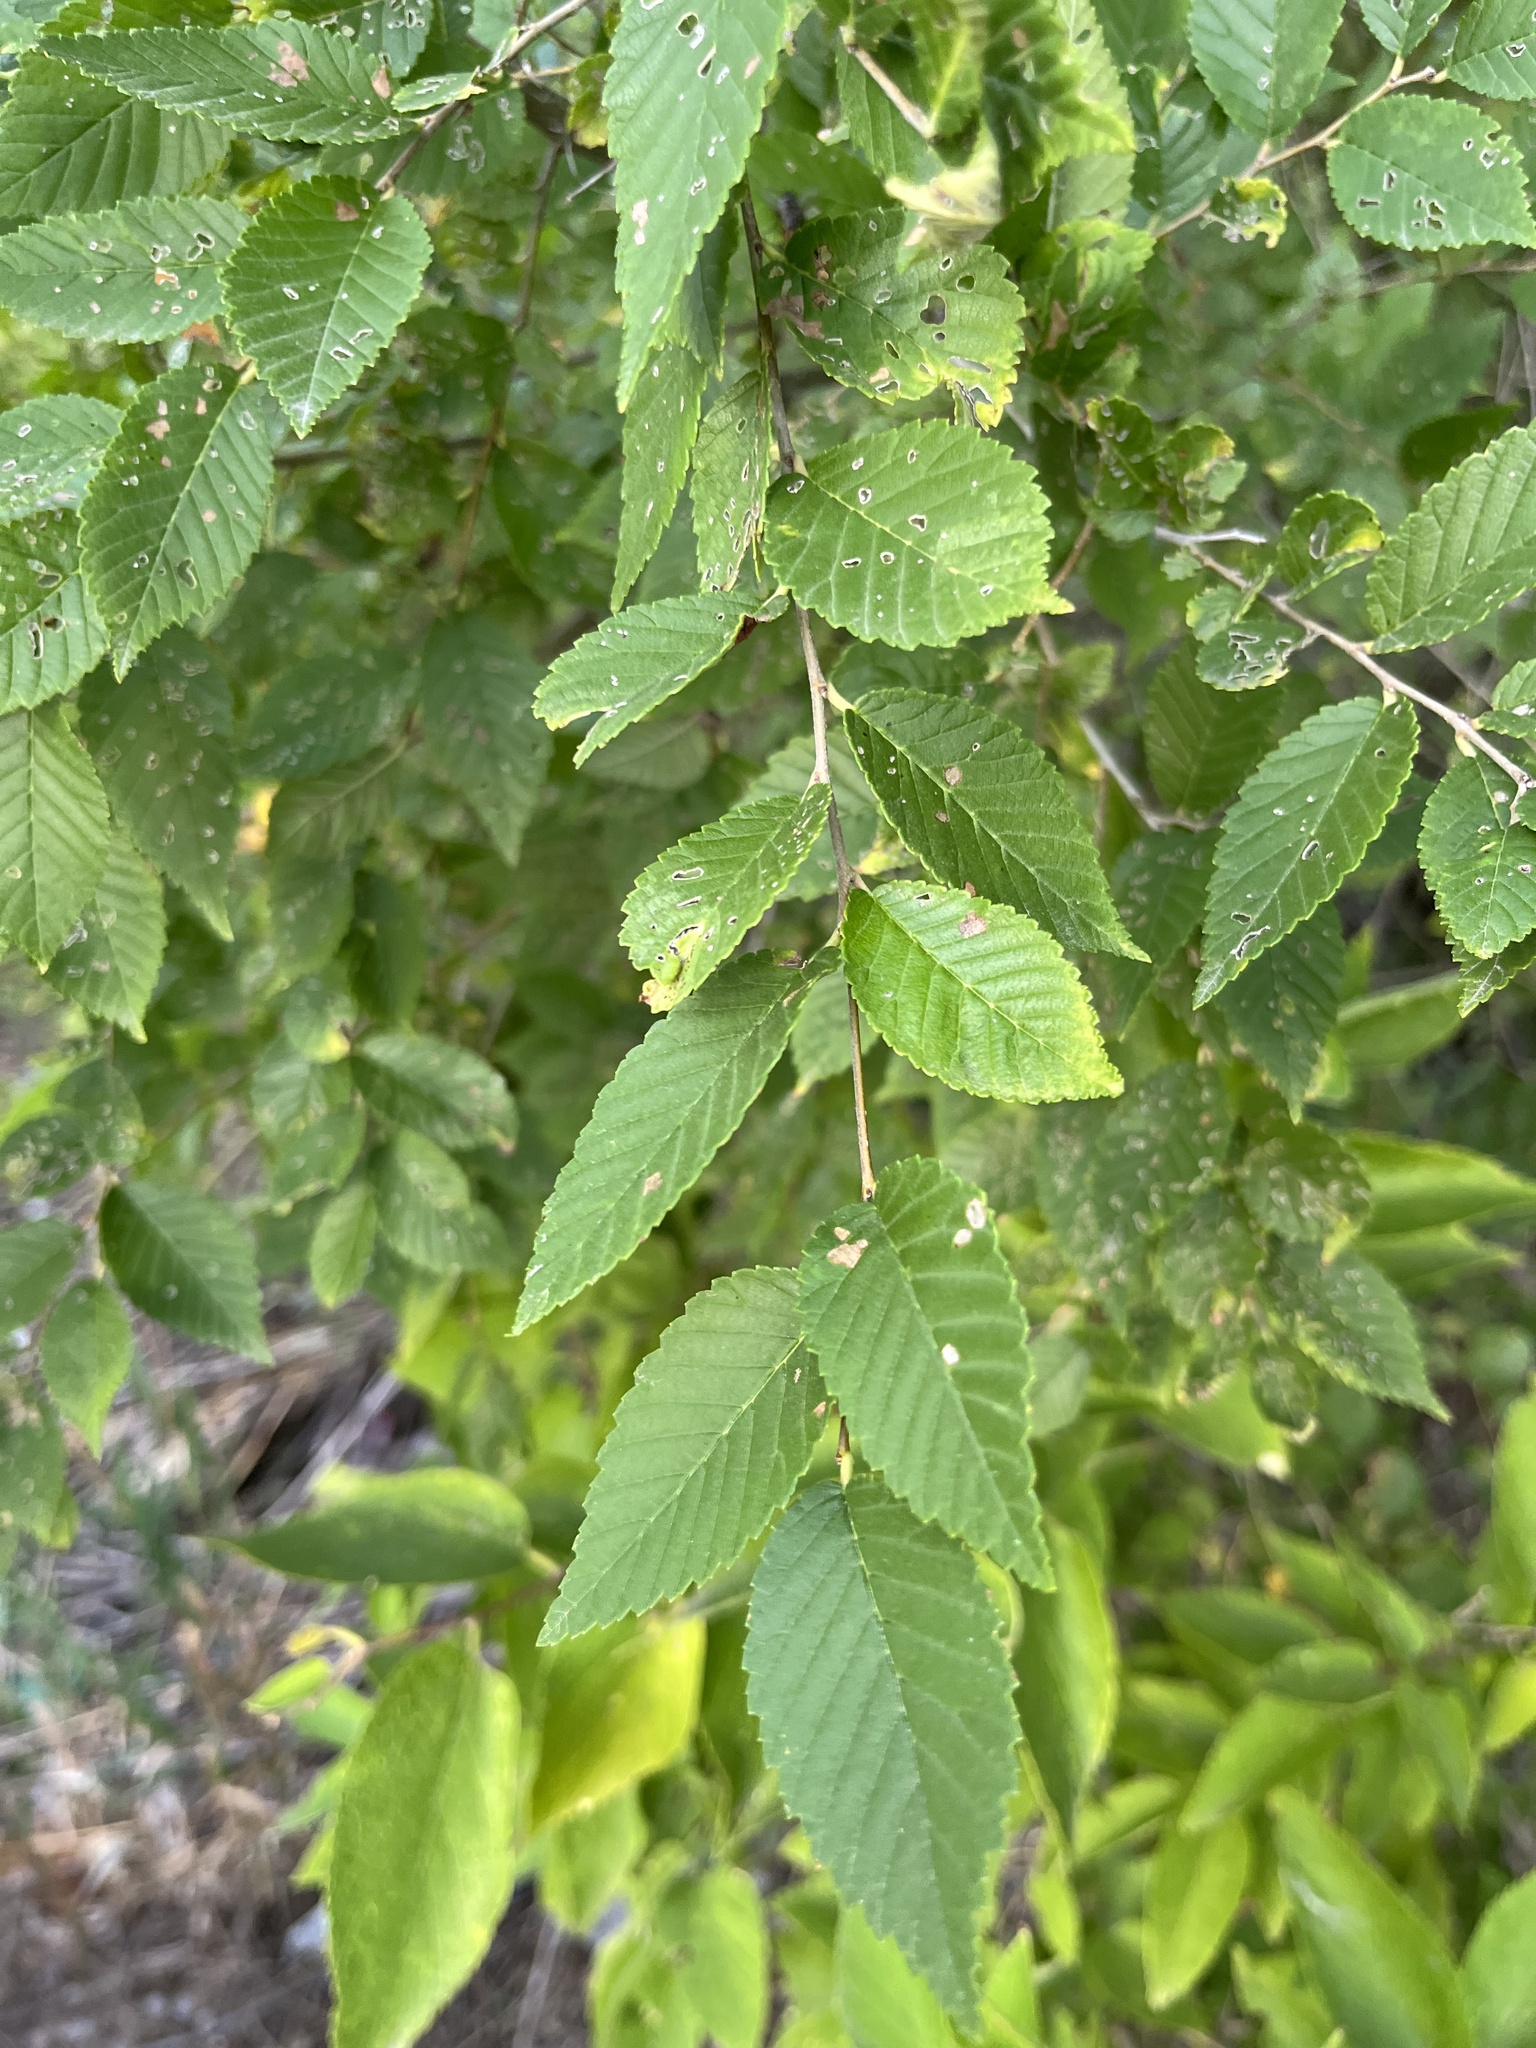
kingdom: Plantae
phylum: Tracheophyta
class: Magnoliopsida
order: Rosales
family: Ulmaceae
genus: Ulmus
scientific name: Ulmus americana
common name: American elm
